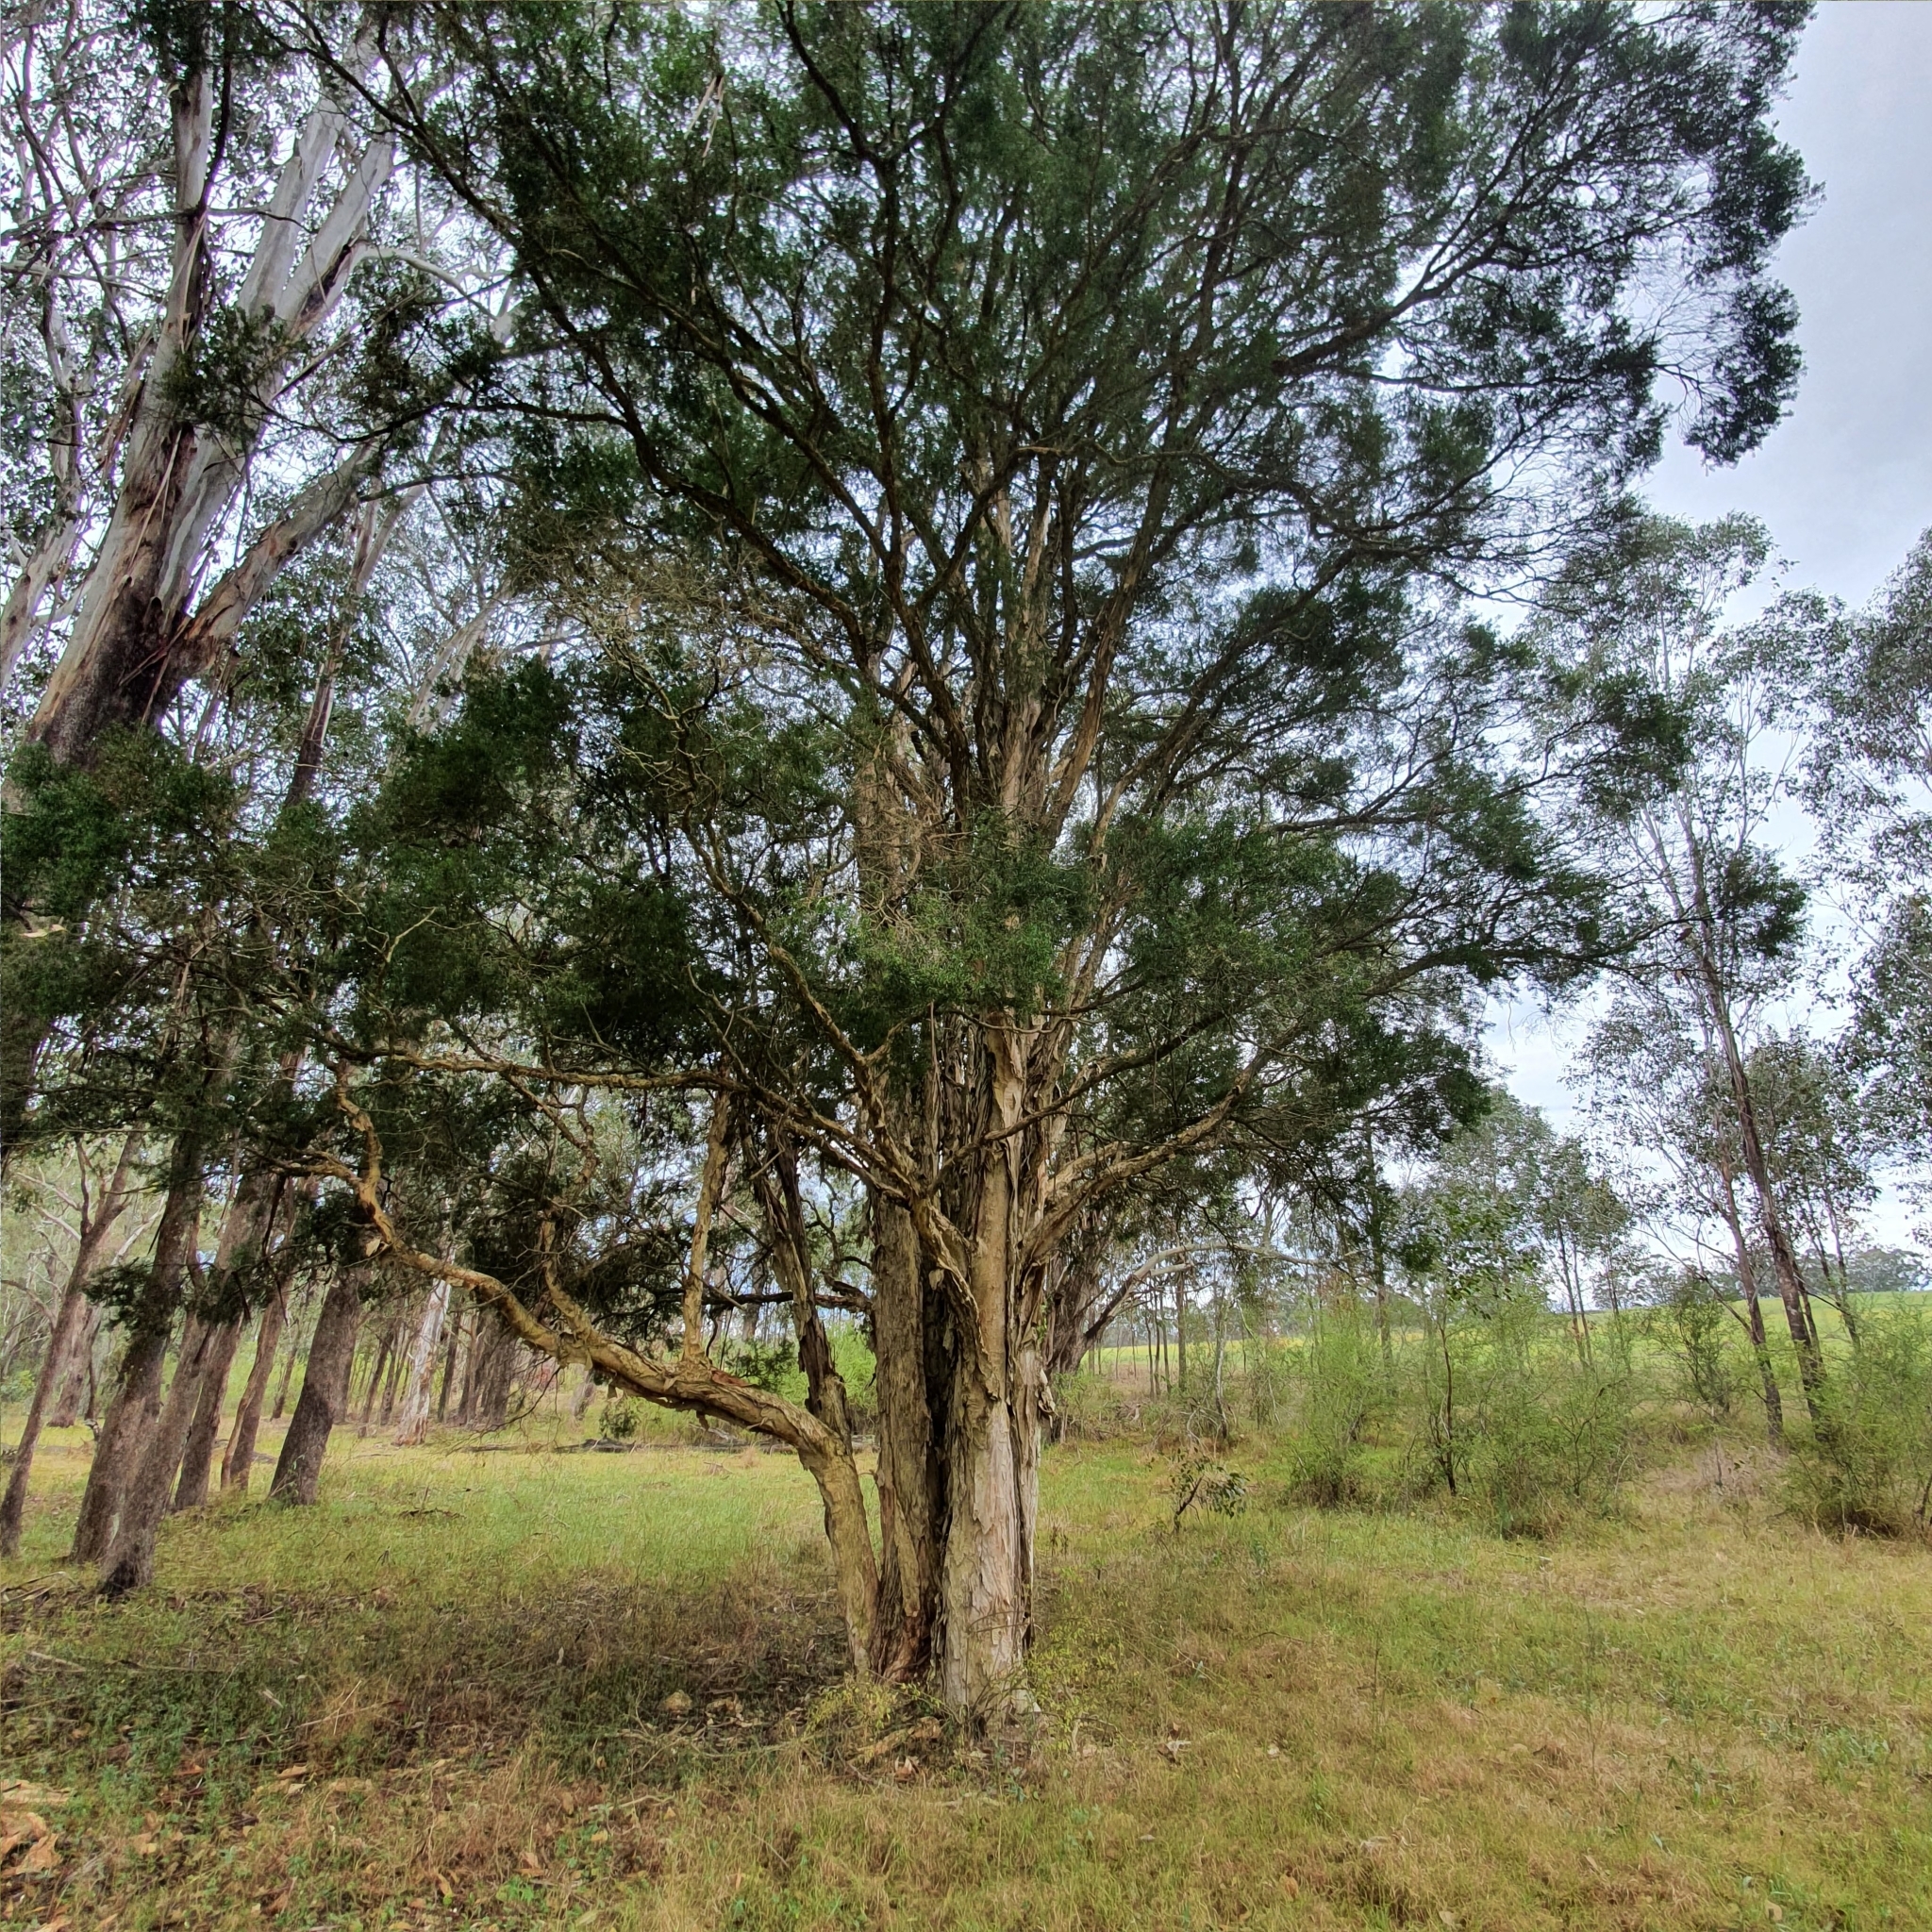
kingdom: Plantae
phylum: Tracheophyta
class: Magnoliopsida
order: Myrtales
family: Myrtaceae
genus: Melaleuca
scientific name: Melaleuca styphelioides
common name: Prickly paperbark
